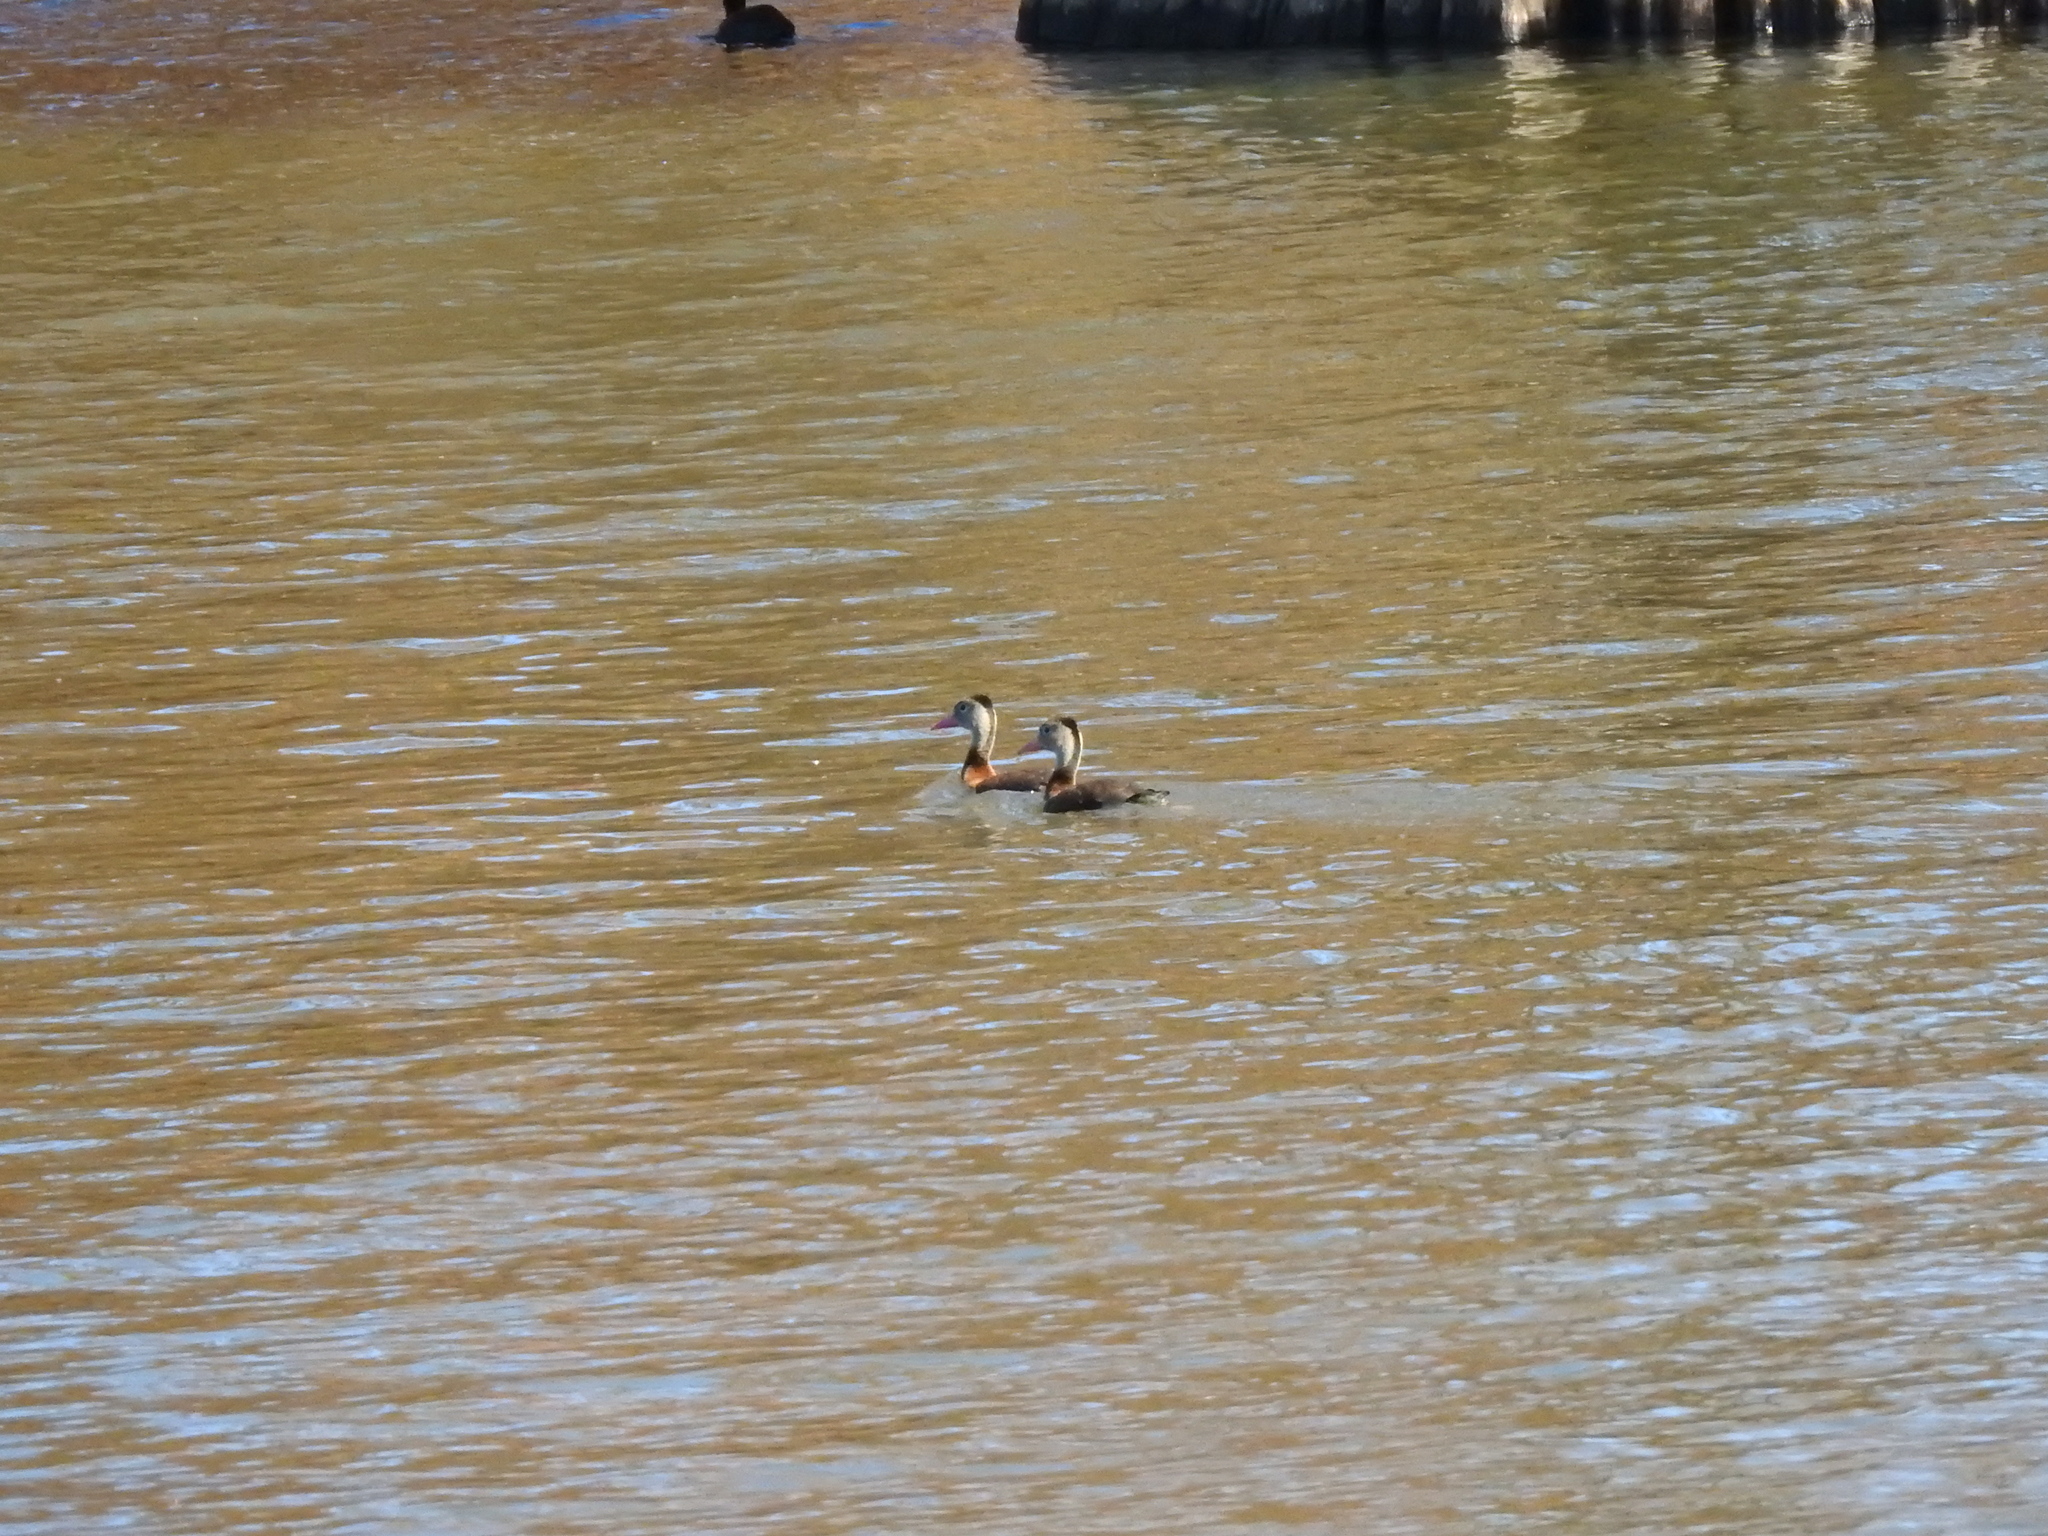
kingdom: Animalia
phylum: Chordata
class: Aves
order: Anseriformes
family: Anatidae
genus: Dendrocygna
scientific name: Dendrocygna autumnalis
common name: Black-bellied whistling duck
